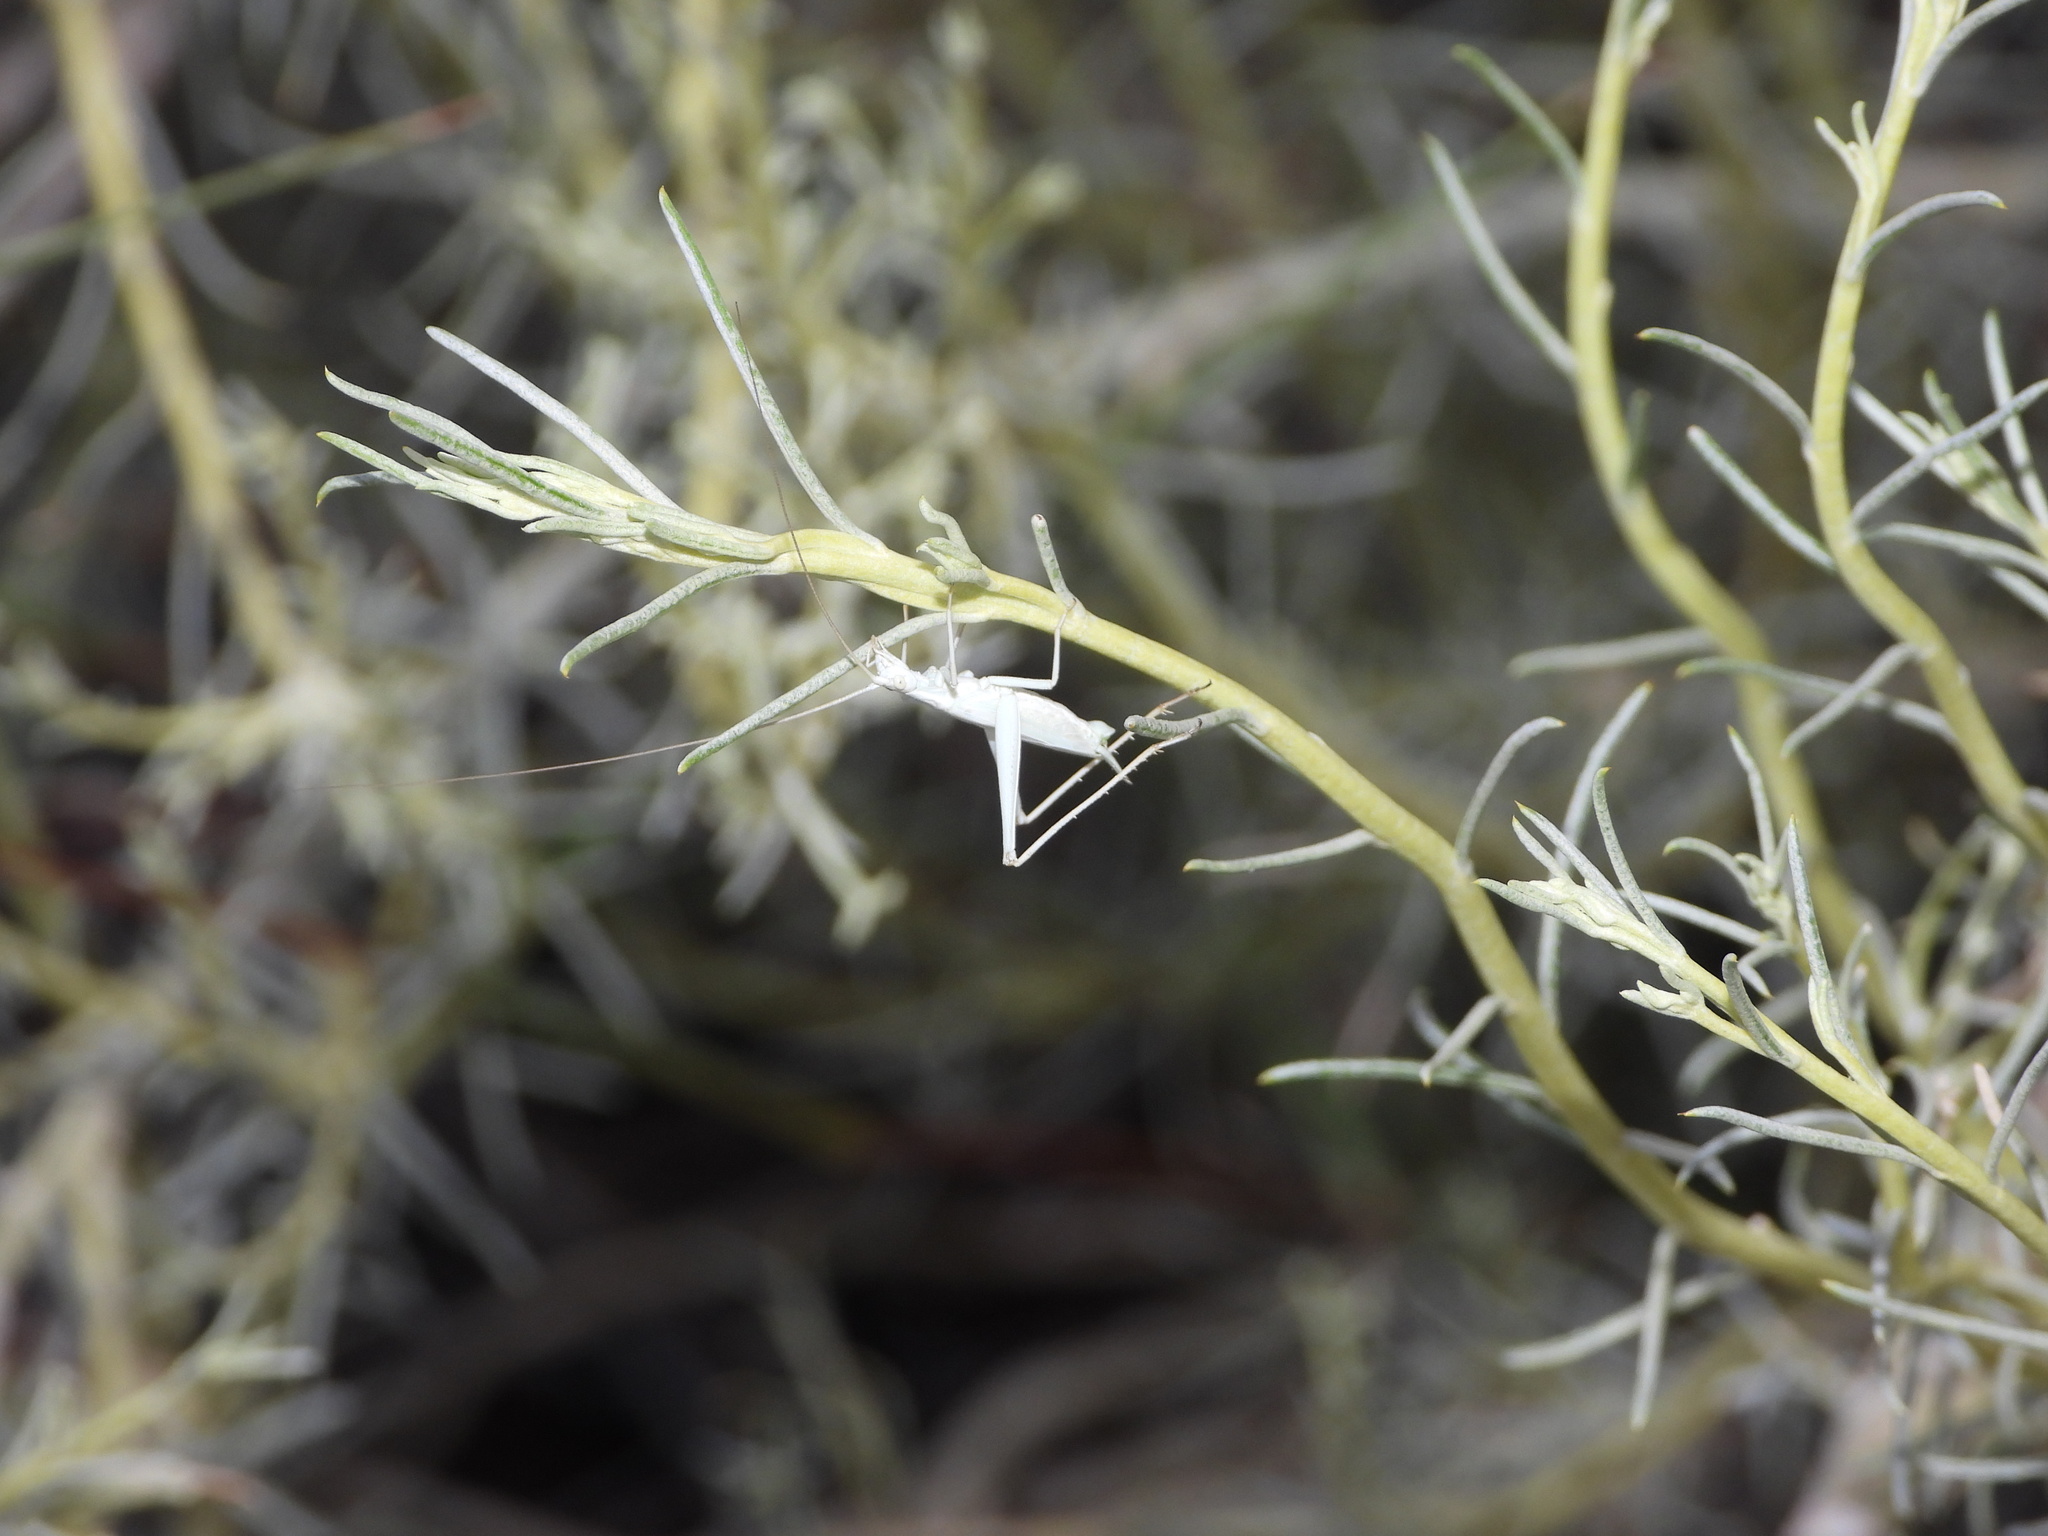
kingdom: Animalia
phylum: Arthropoda
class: Insecta
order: Orthoptera
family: Gryllidae
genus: Oecanthus
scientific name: Oecanthus beameri
